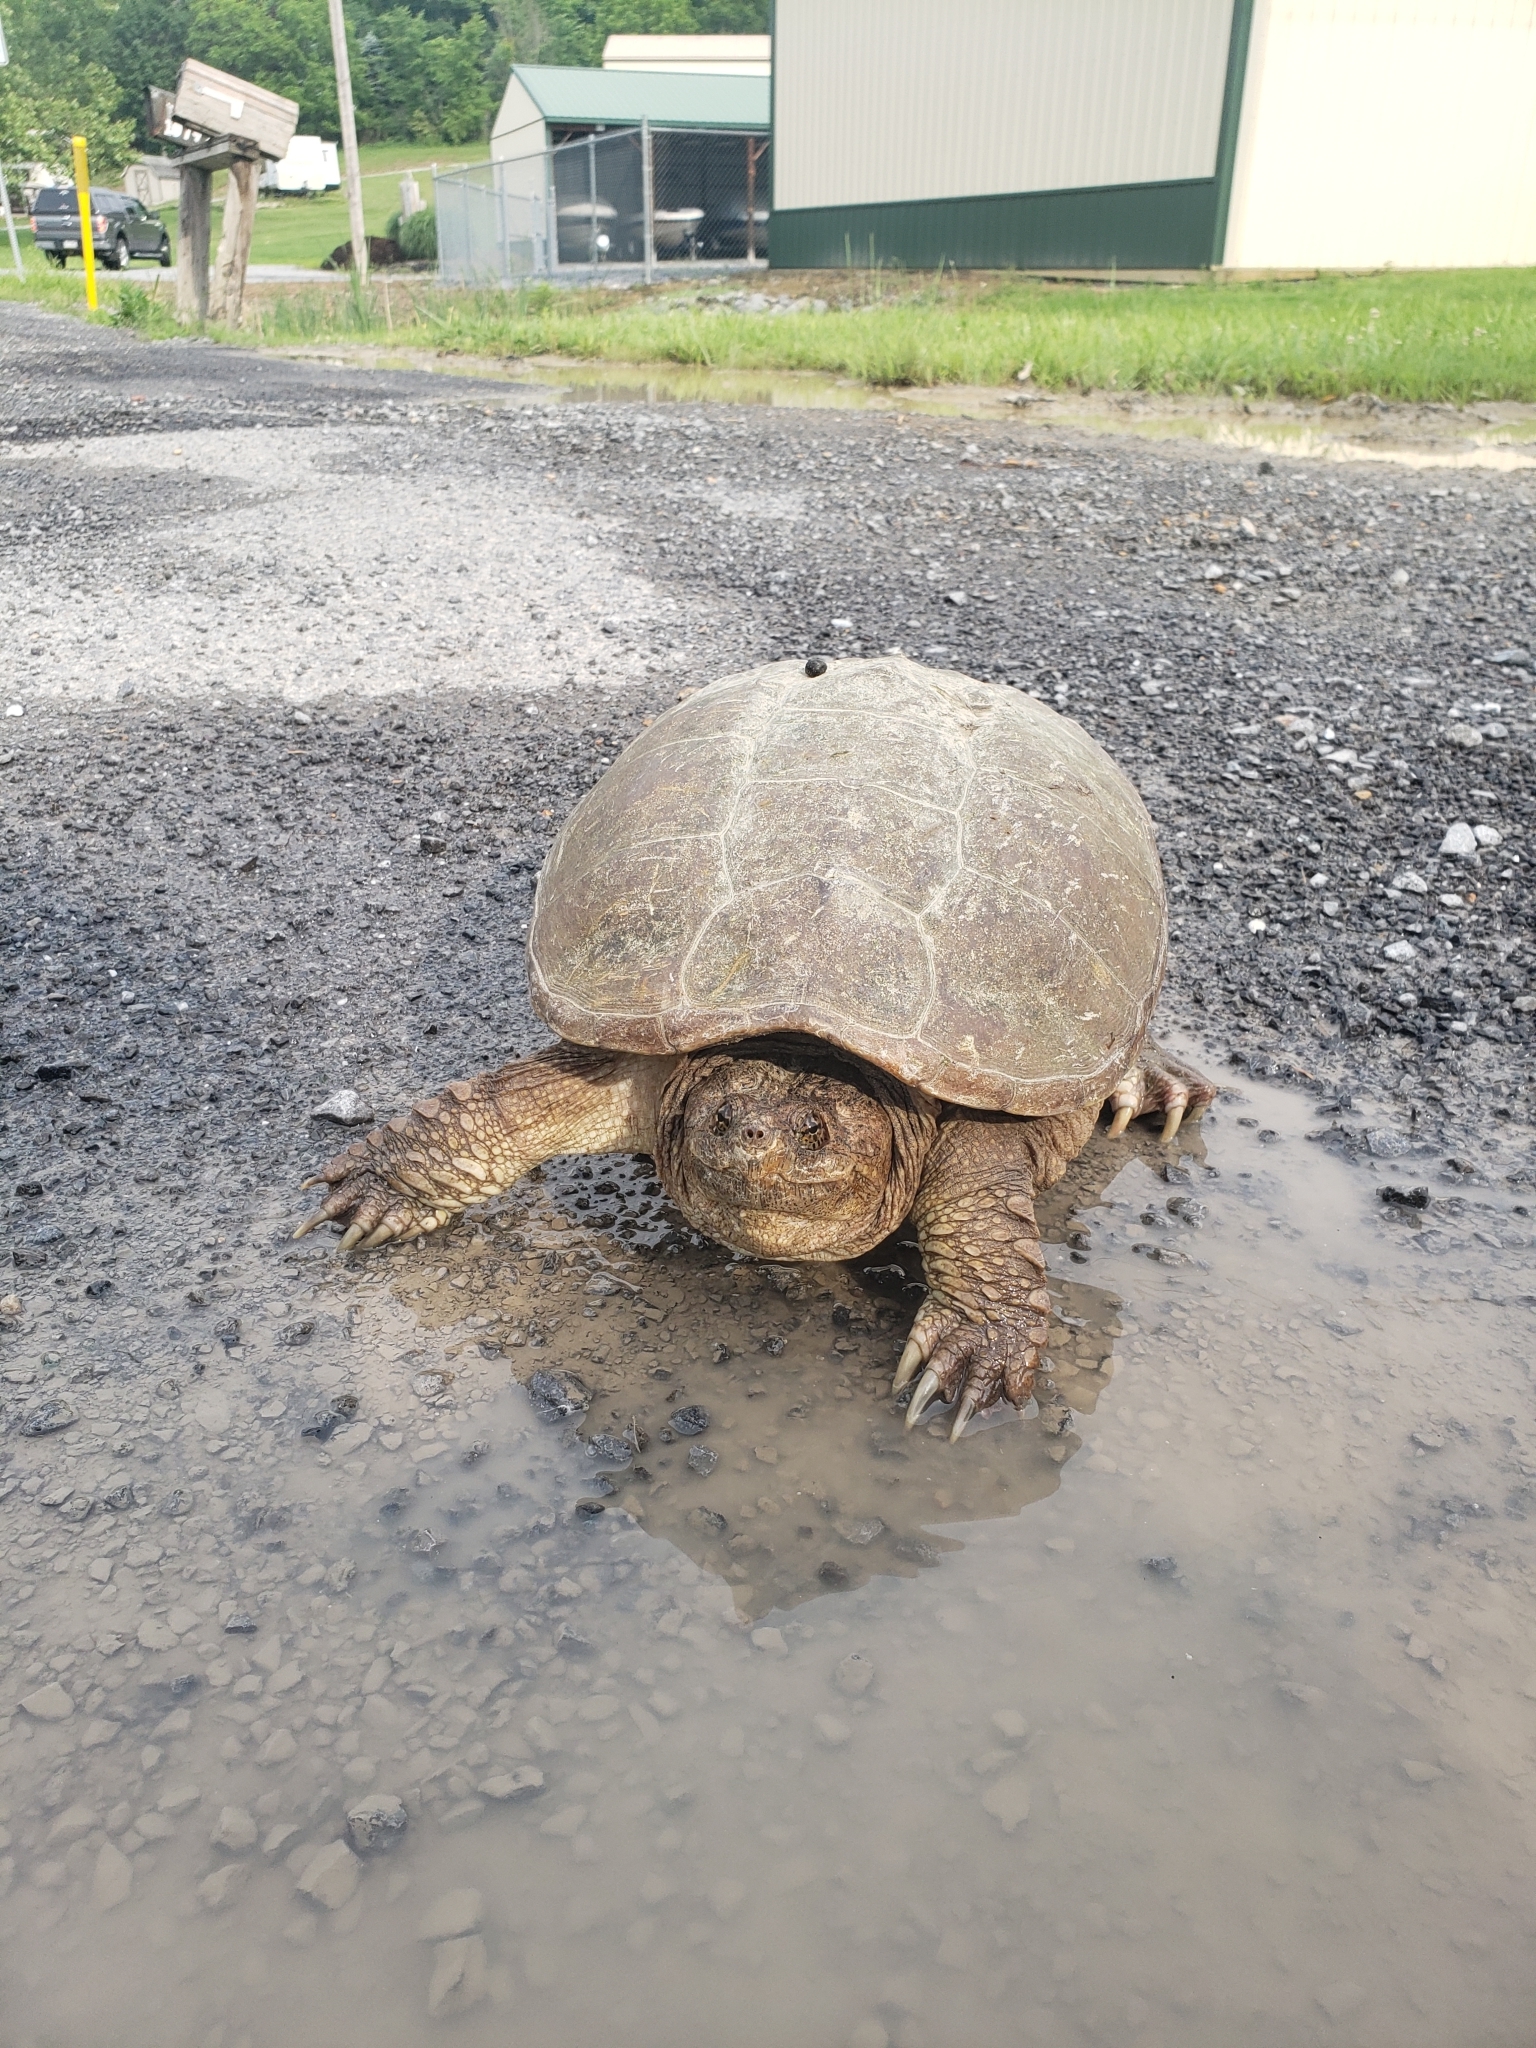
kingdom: Animalia
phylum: Chordata
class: Testudines
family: Chelydridae
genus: Chelydra
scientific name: Chelydra serpentina
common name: Common snapping turtle
